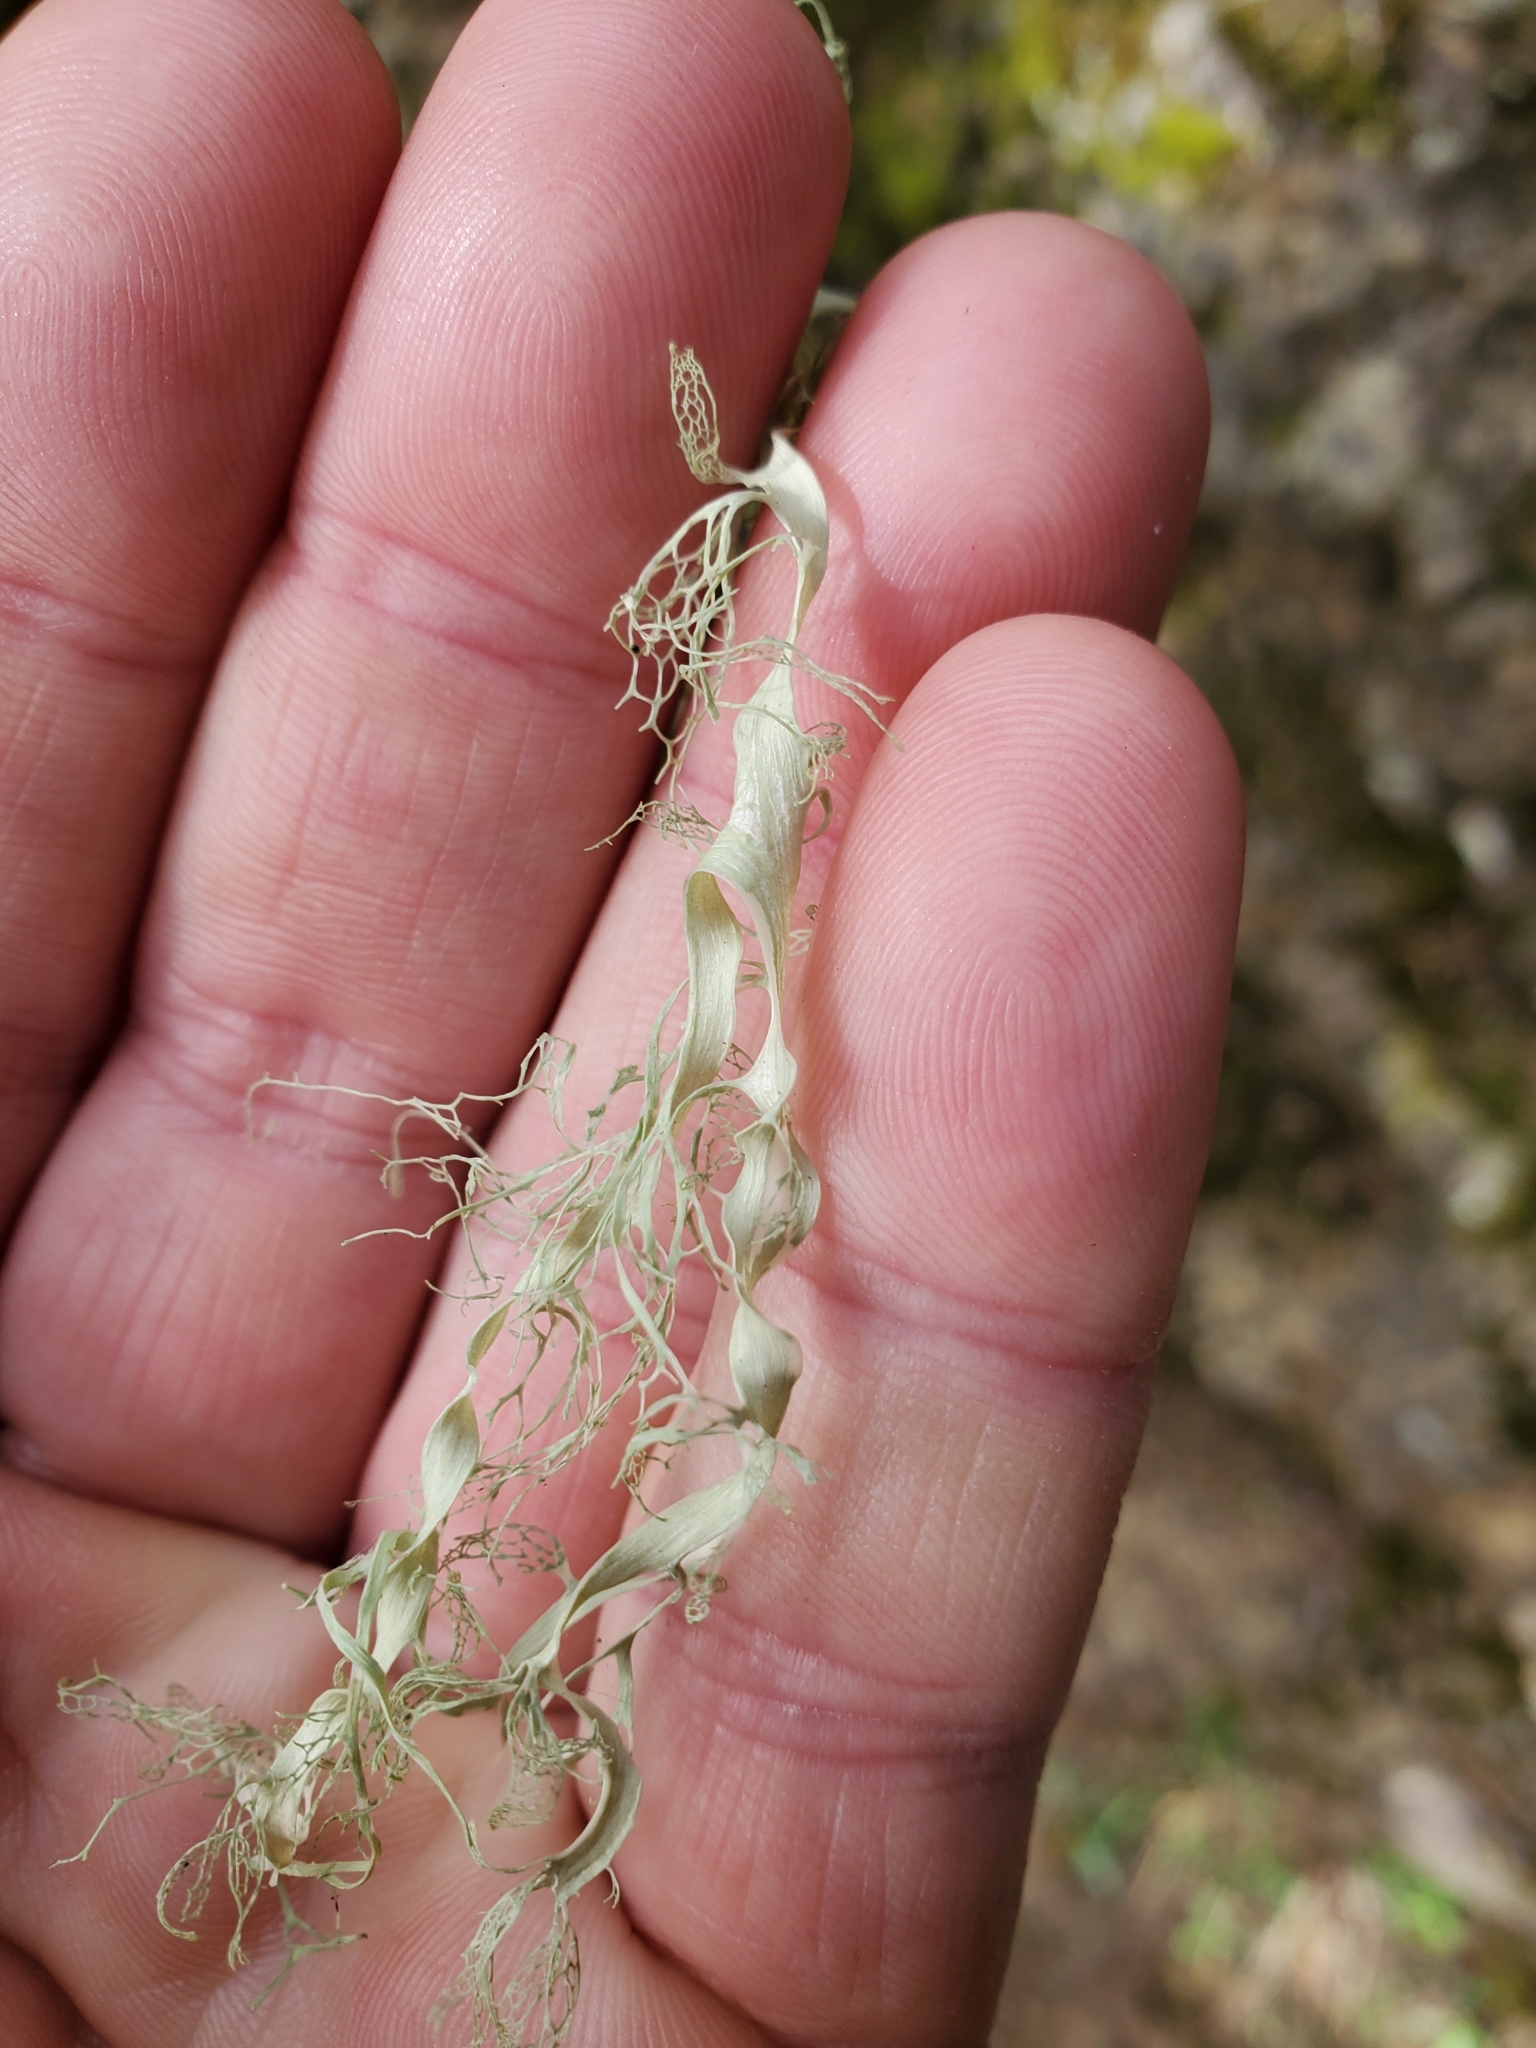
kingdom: Fungi
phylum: Ascomycota
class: Lecanoromycetes
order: Lecanorales
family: Ramalinaceae
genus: Ramalina
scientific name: Ramalina menziesii
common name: Lace lichen
